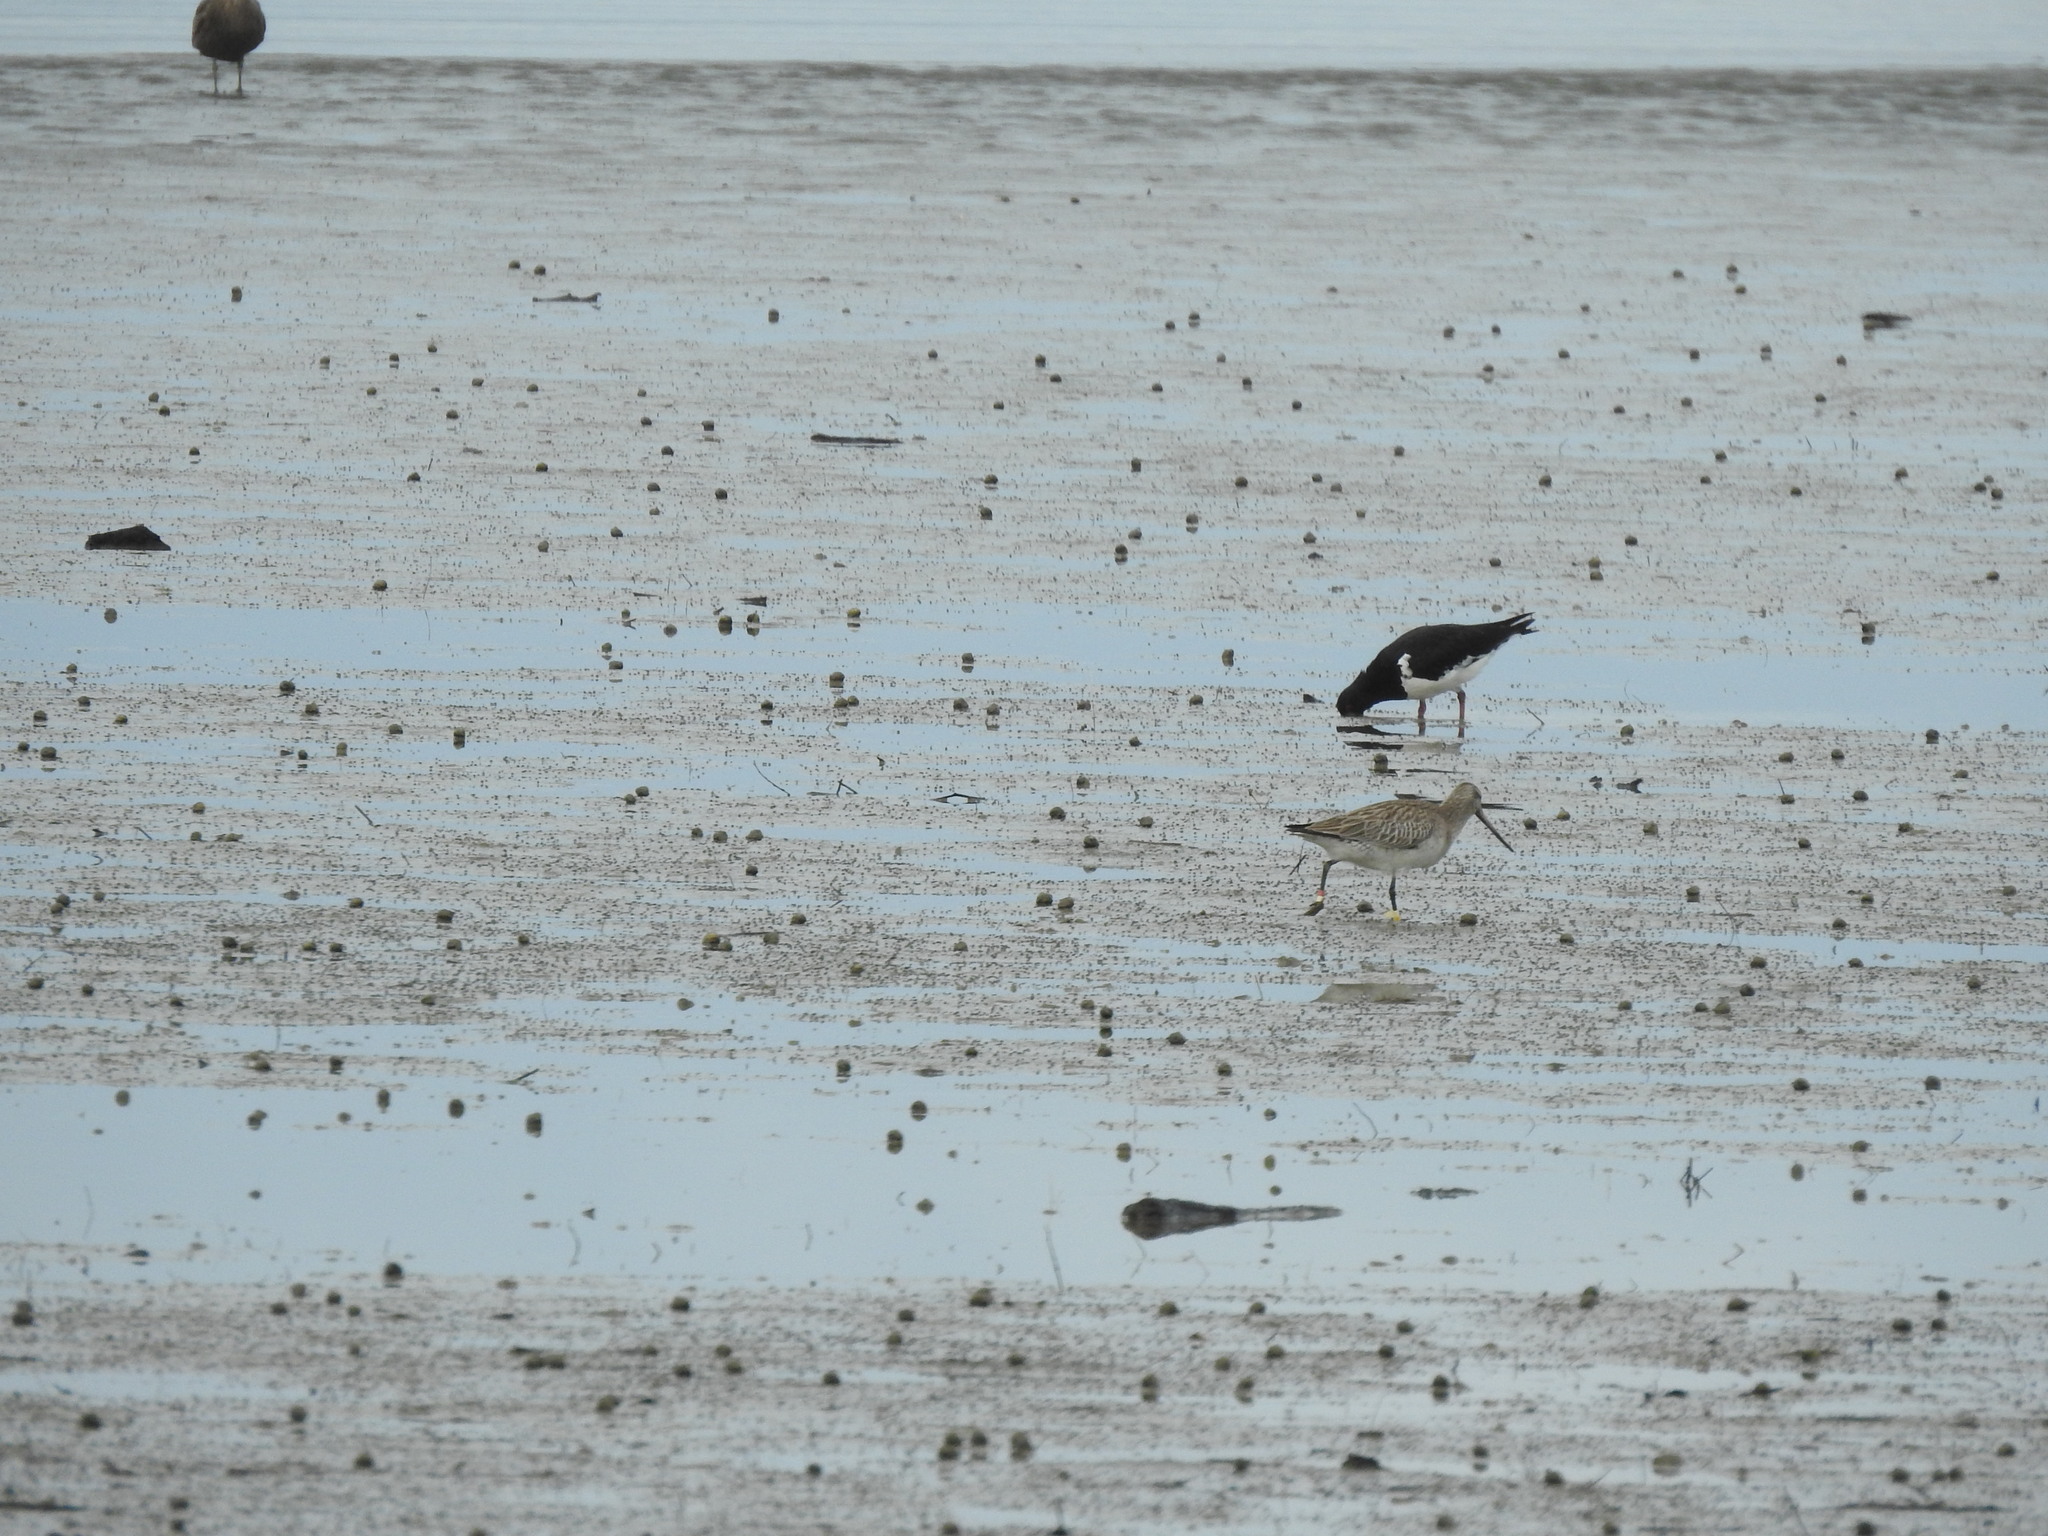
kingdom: Animalia
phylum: Chordata
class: Aves
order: Charadriiformes
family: Scolopacidae
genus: Limosa
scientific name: Limosa lapponica
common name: Bar-tailed godwit
